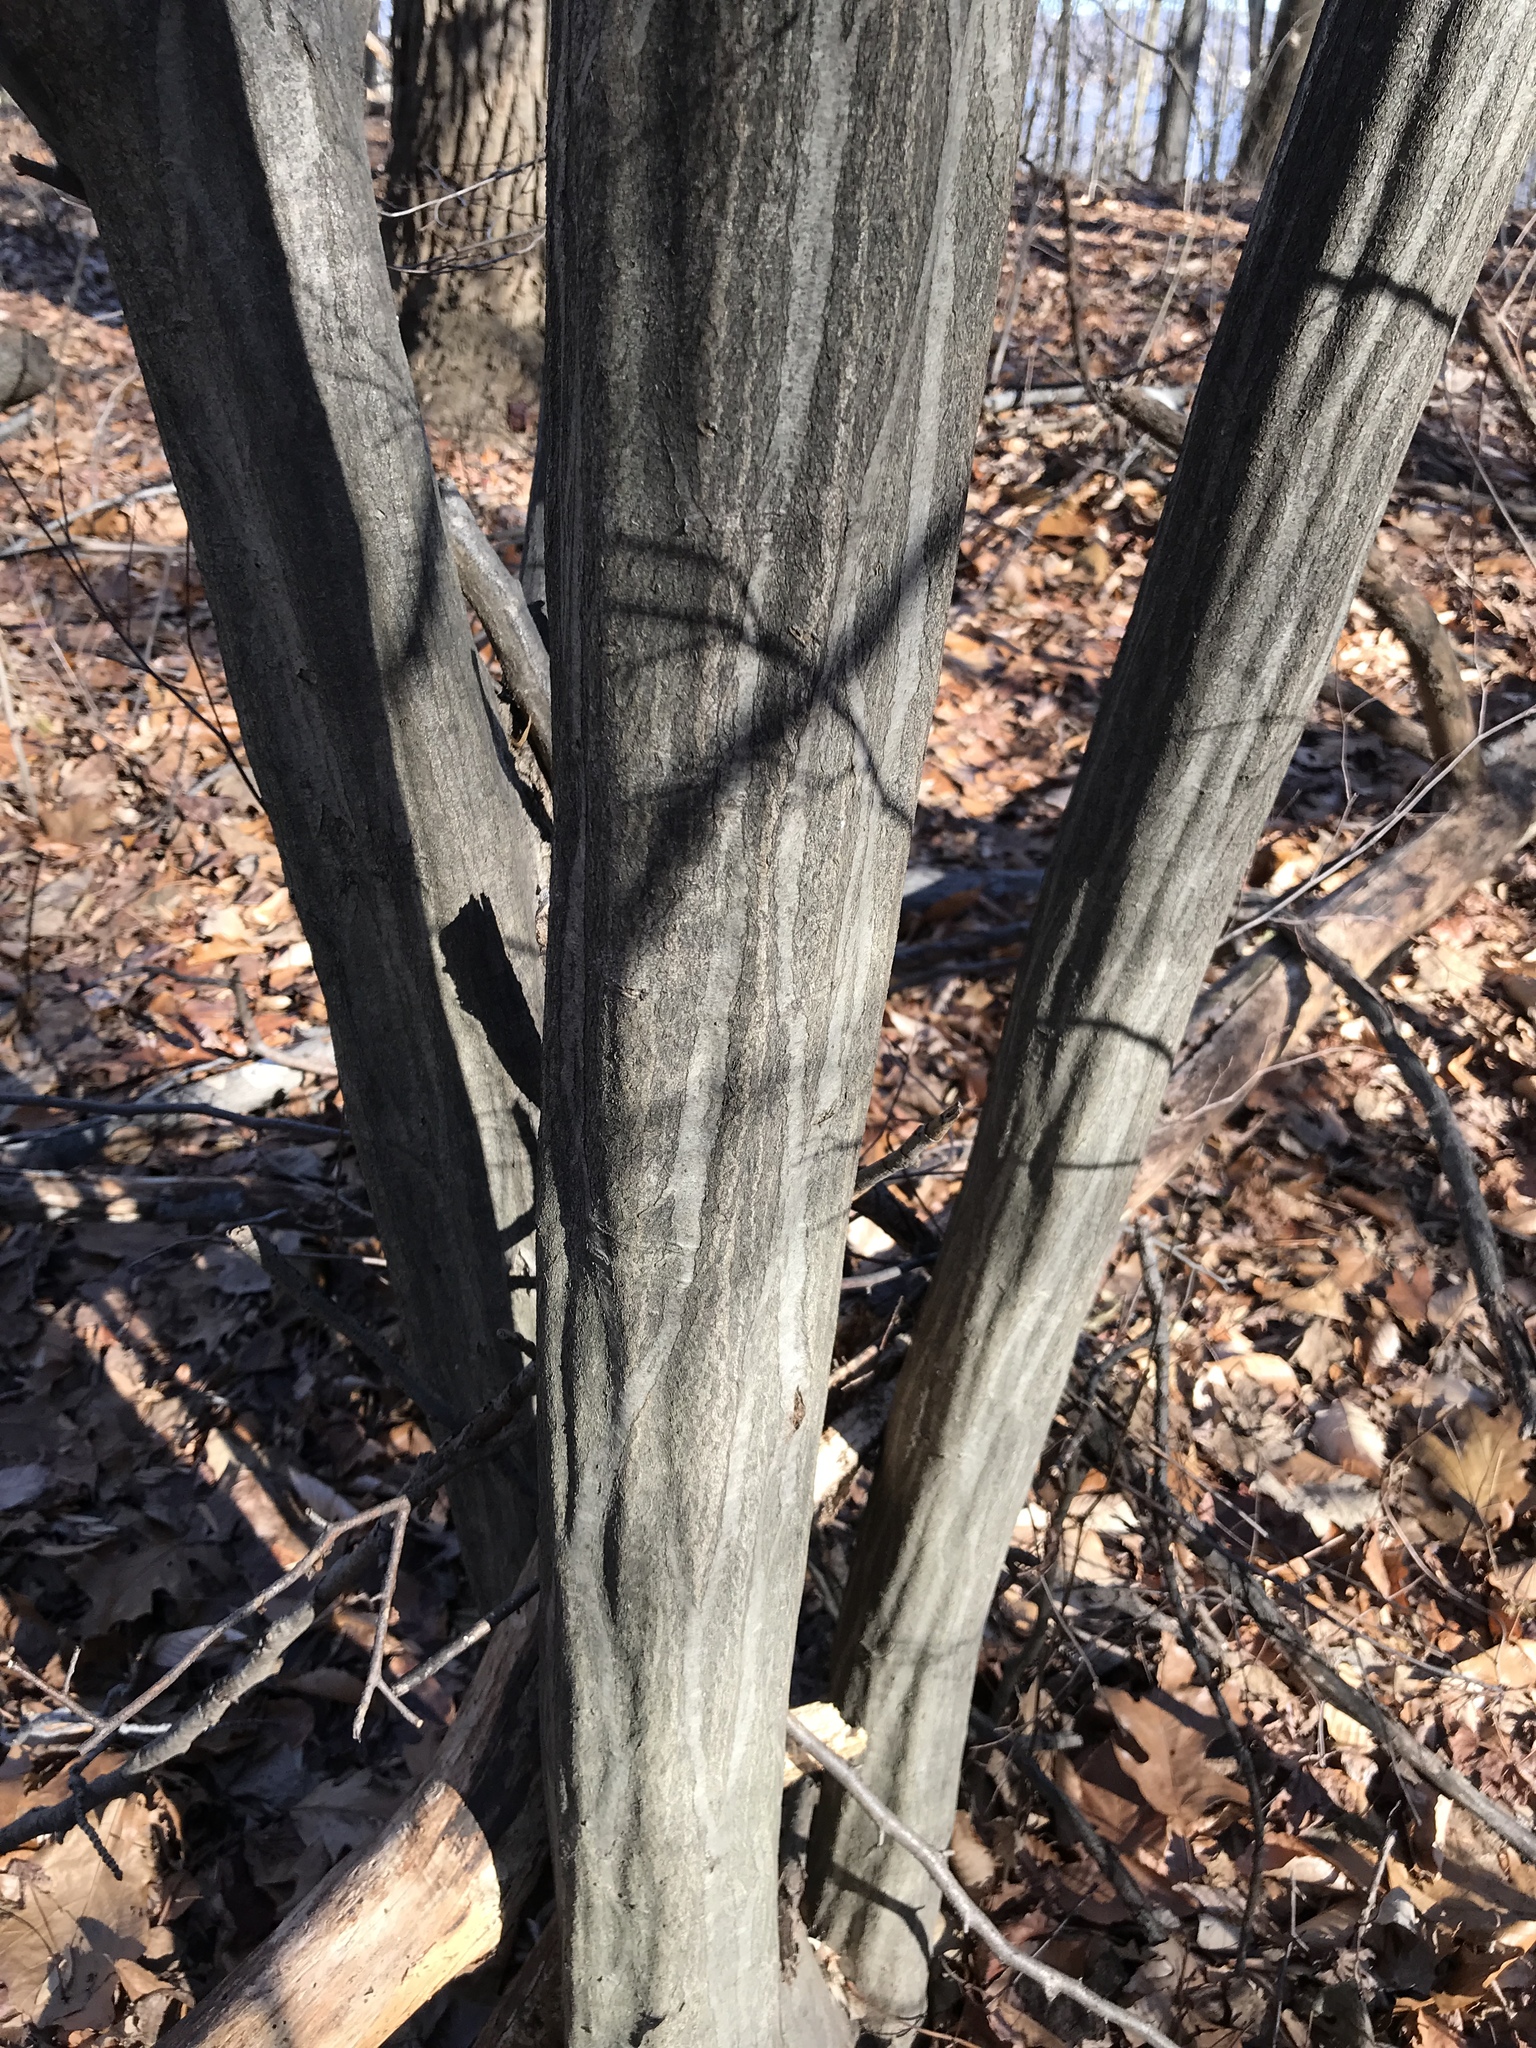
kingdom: Plantae
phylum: Tracheophyta
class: Magnoliopsida
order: Fagales
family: Betulaceae
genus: Carpinus
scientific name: Carpinus caroliniana
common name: American hornbeam
